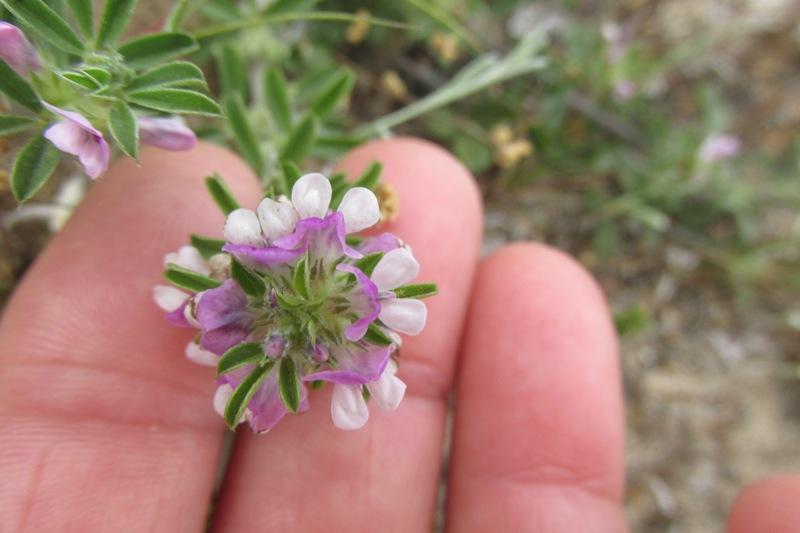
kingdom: Plantae
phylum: Tracheophyta
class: Magnoliopsida
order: Fabales
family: Fabaceae
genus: Psoralea
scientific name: Psoralea
